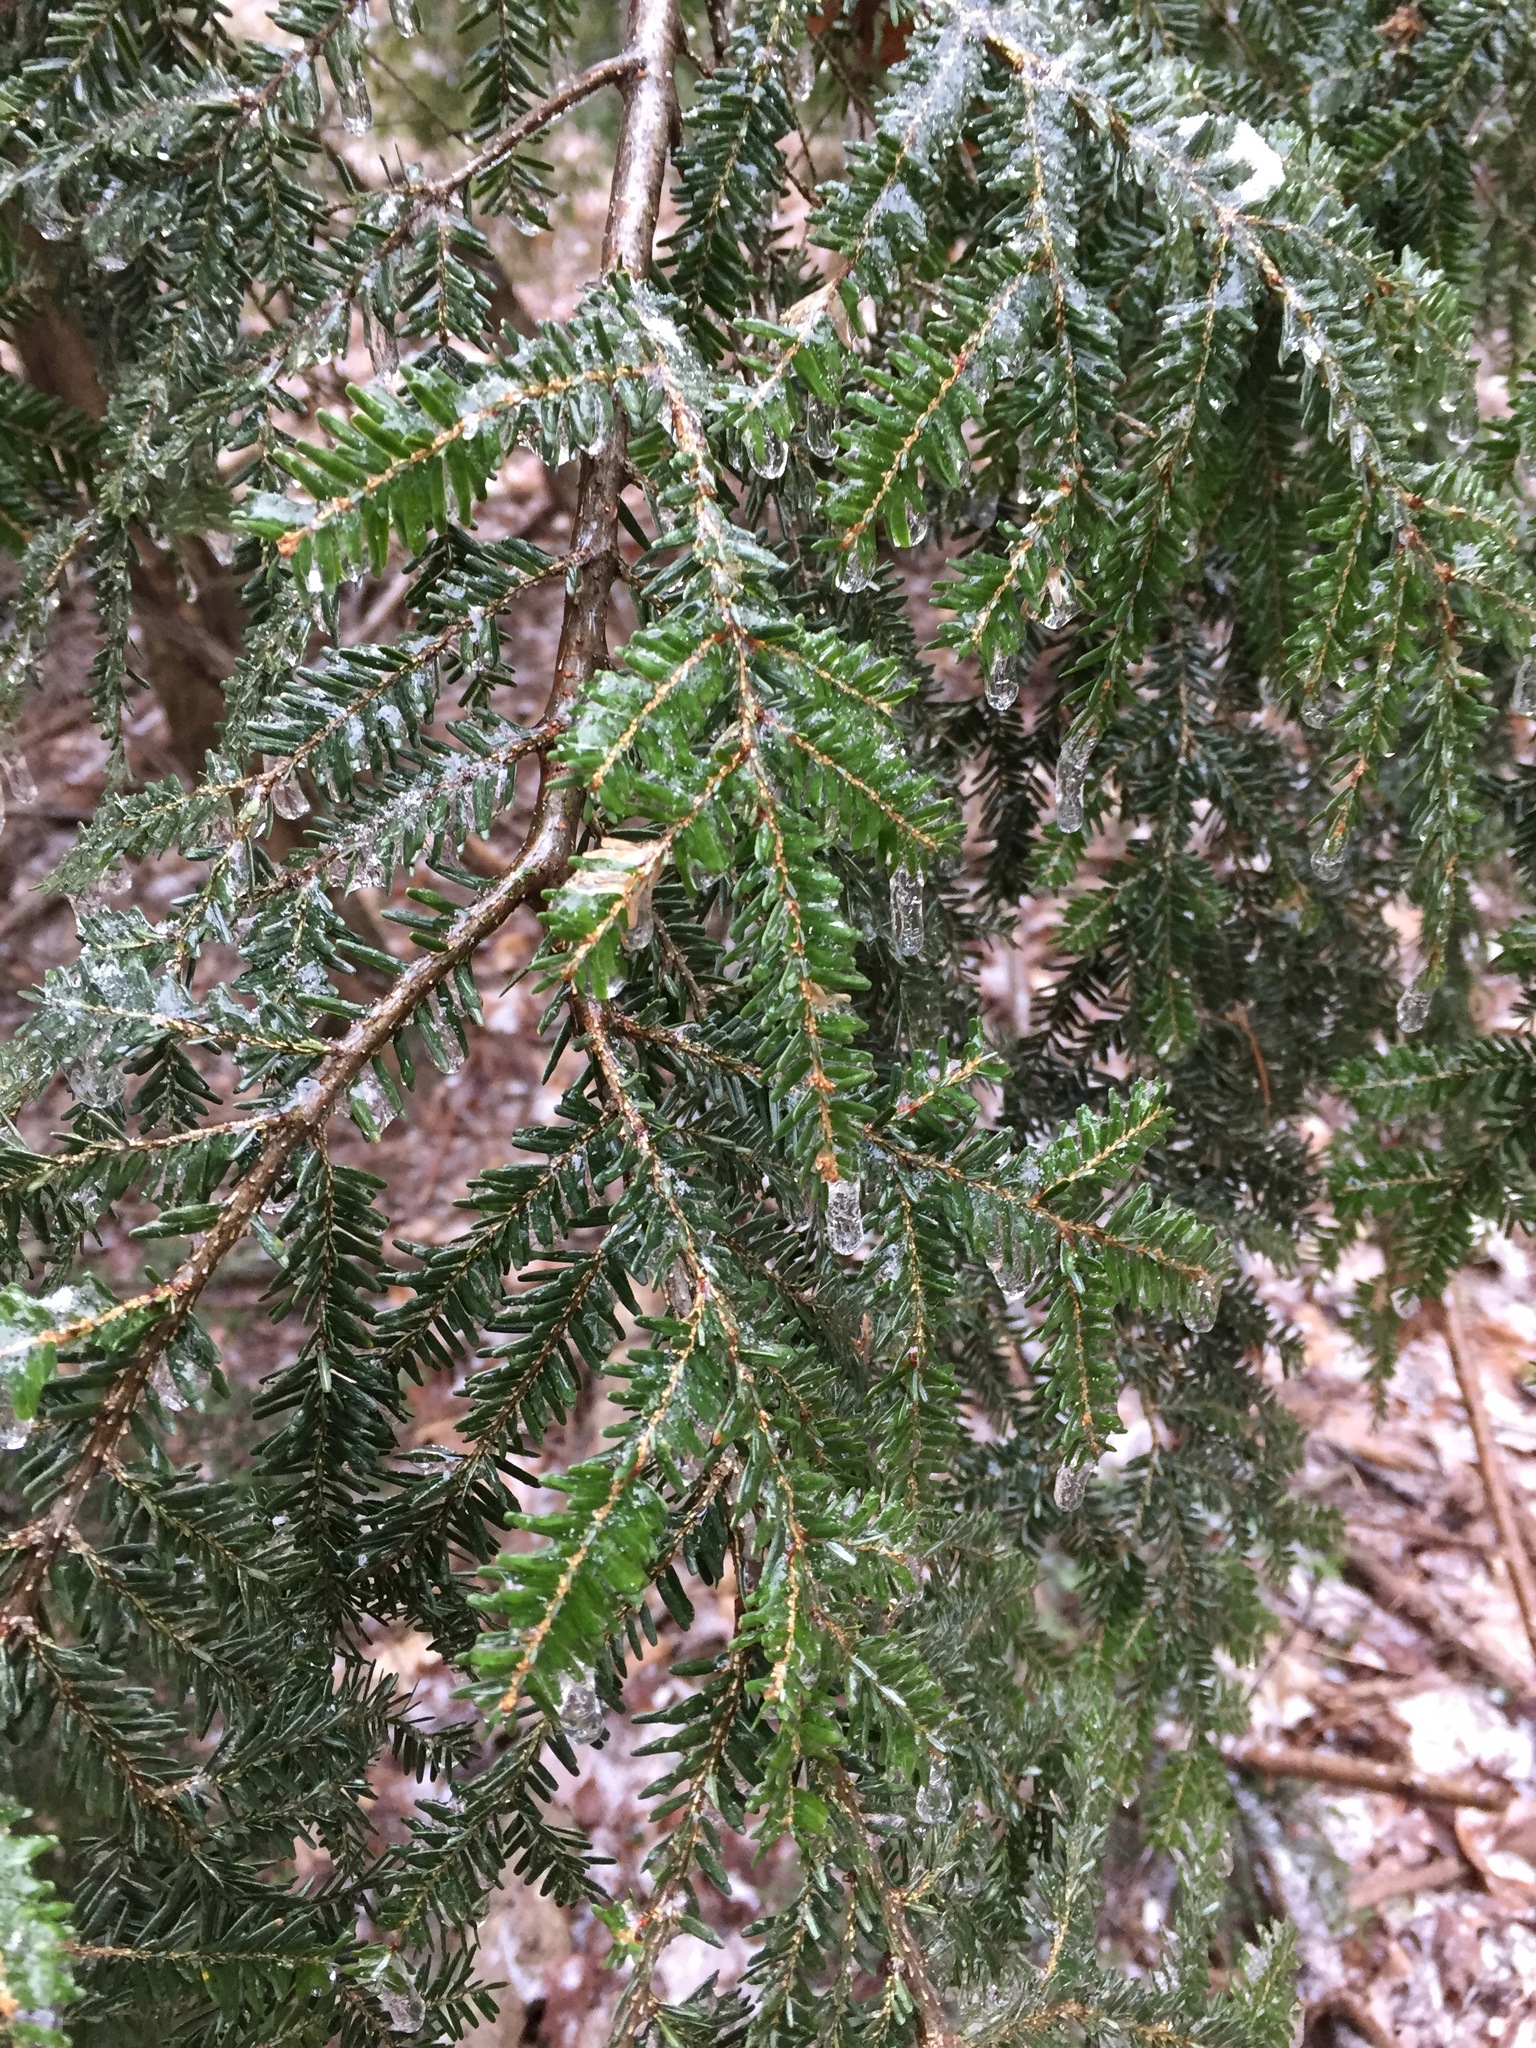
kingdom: Plantae
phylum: Tracheophyta
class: Pinopsida
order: Pinales
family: Pinaceae
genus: Tsuga
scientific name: Tsuga canadensis
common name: Eastern hemlock
